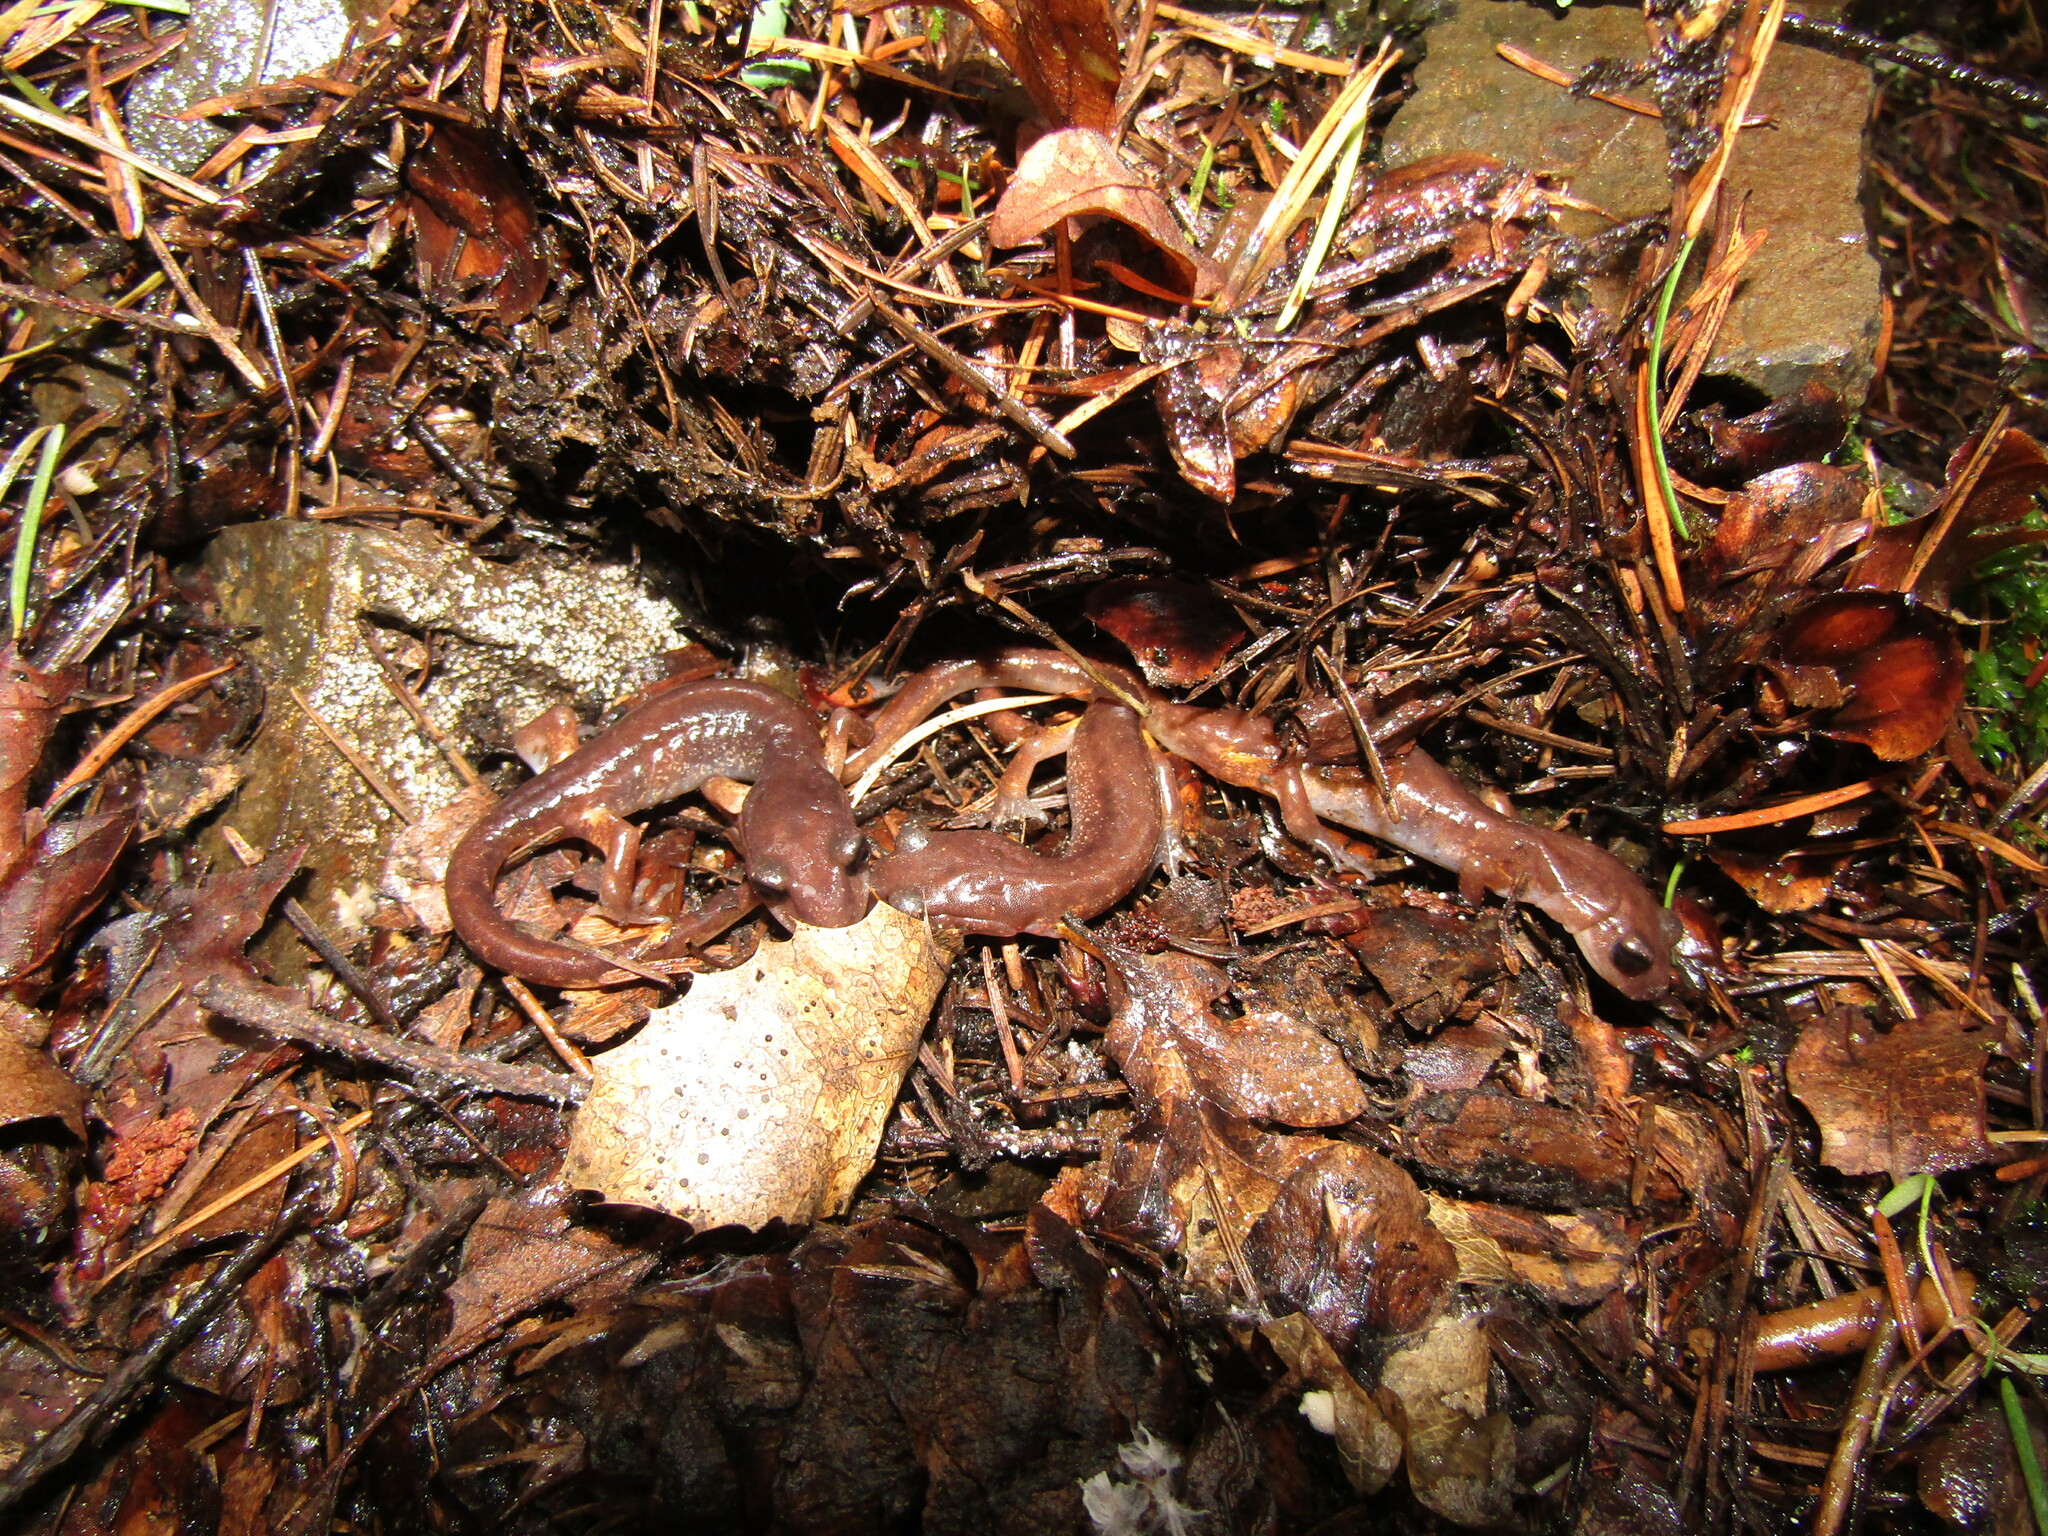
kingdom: Animalia
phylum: Chordata
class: Amphibia
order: Caudata
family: Plethodontidae
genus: Ensatina
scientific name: Ensatina eschscholtzii
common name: Ensatina
